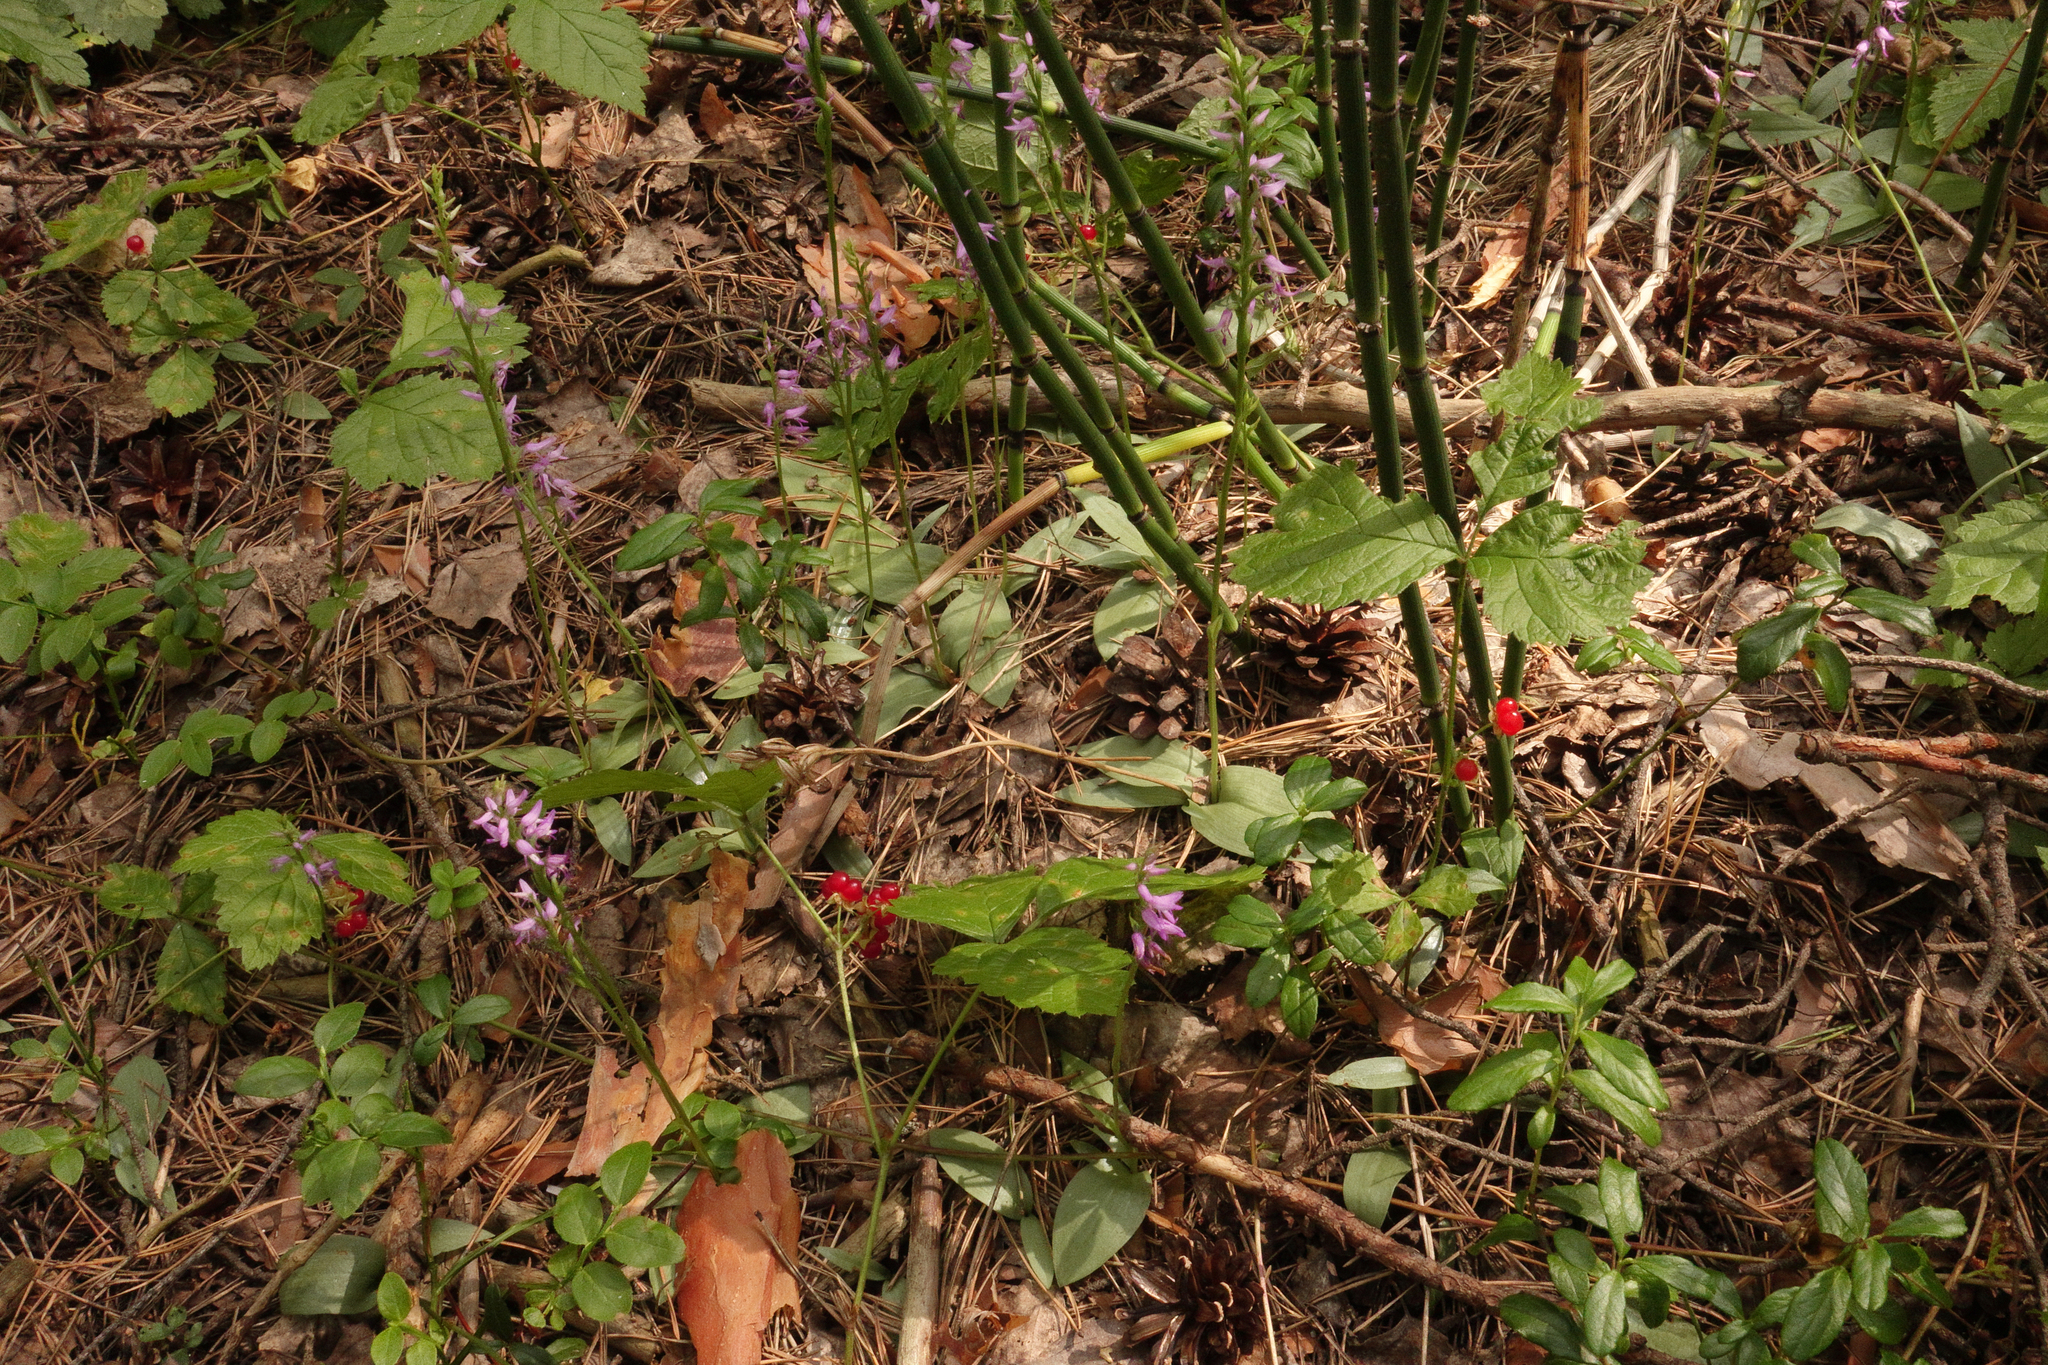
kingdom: Plantae
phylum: Tracheophyta
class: Liliopsida
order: Asparagales
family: Orchidaceae
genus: Hemipilia
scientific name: Hemipilia cucullata
